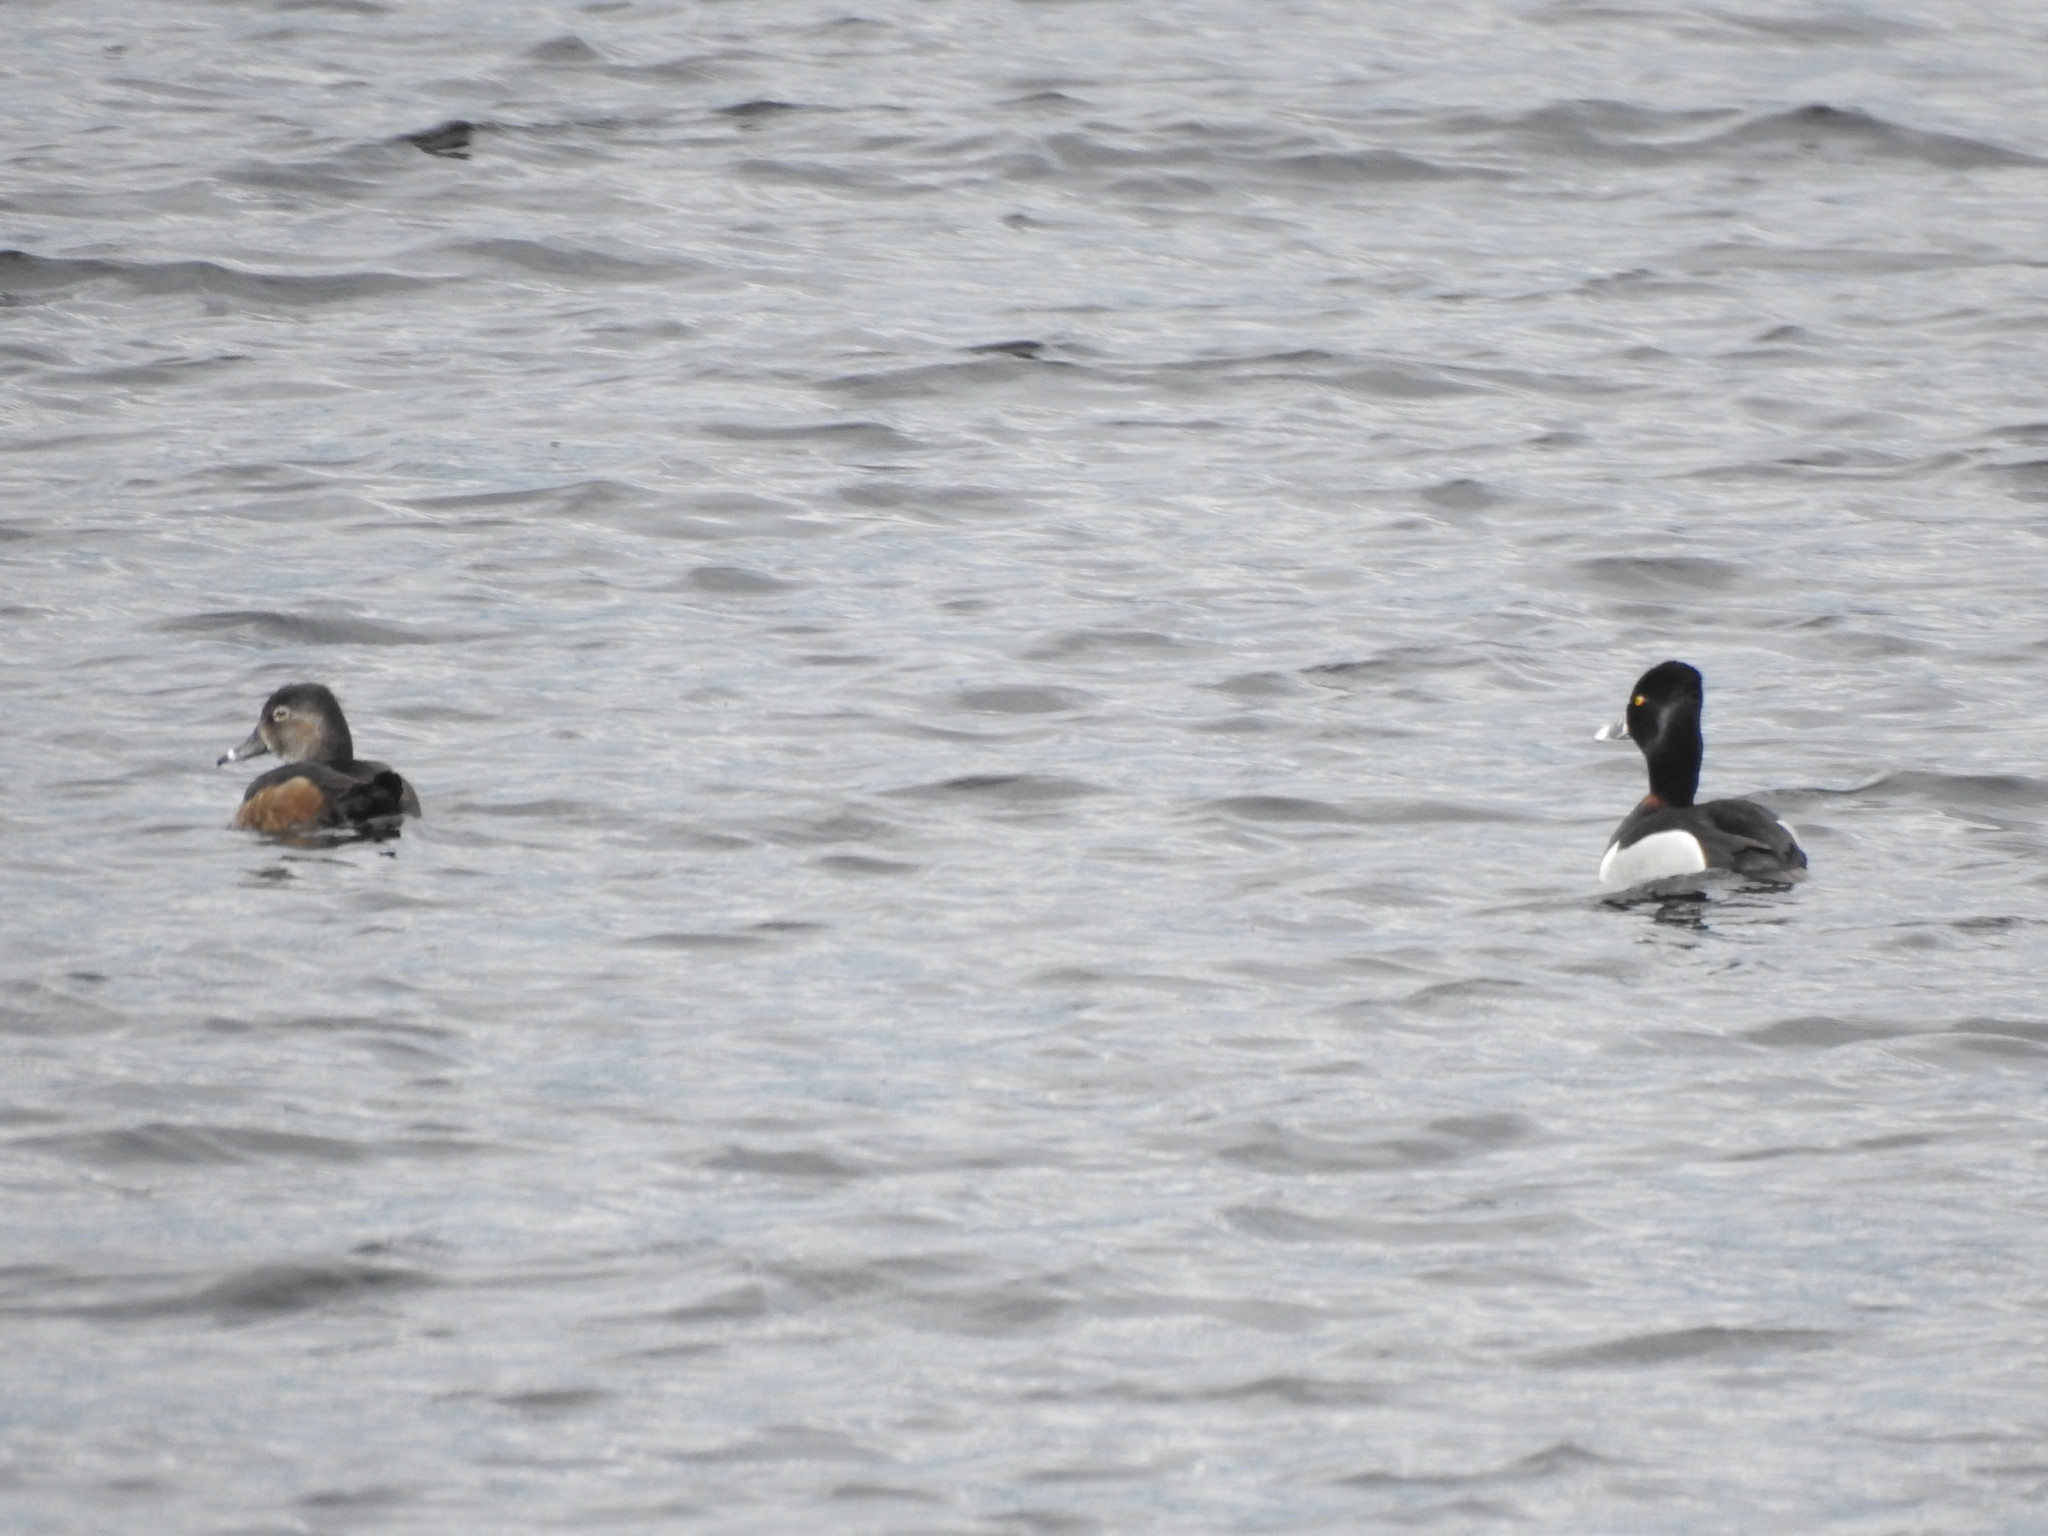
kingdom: Animalia
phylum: Chordata
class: Aves
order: Anseriformes
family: Anatidae
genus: Aythya
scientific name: Aythya collaris
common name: Ring-necked duck
